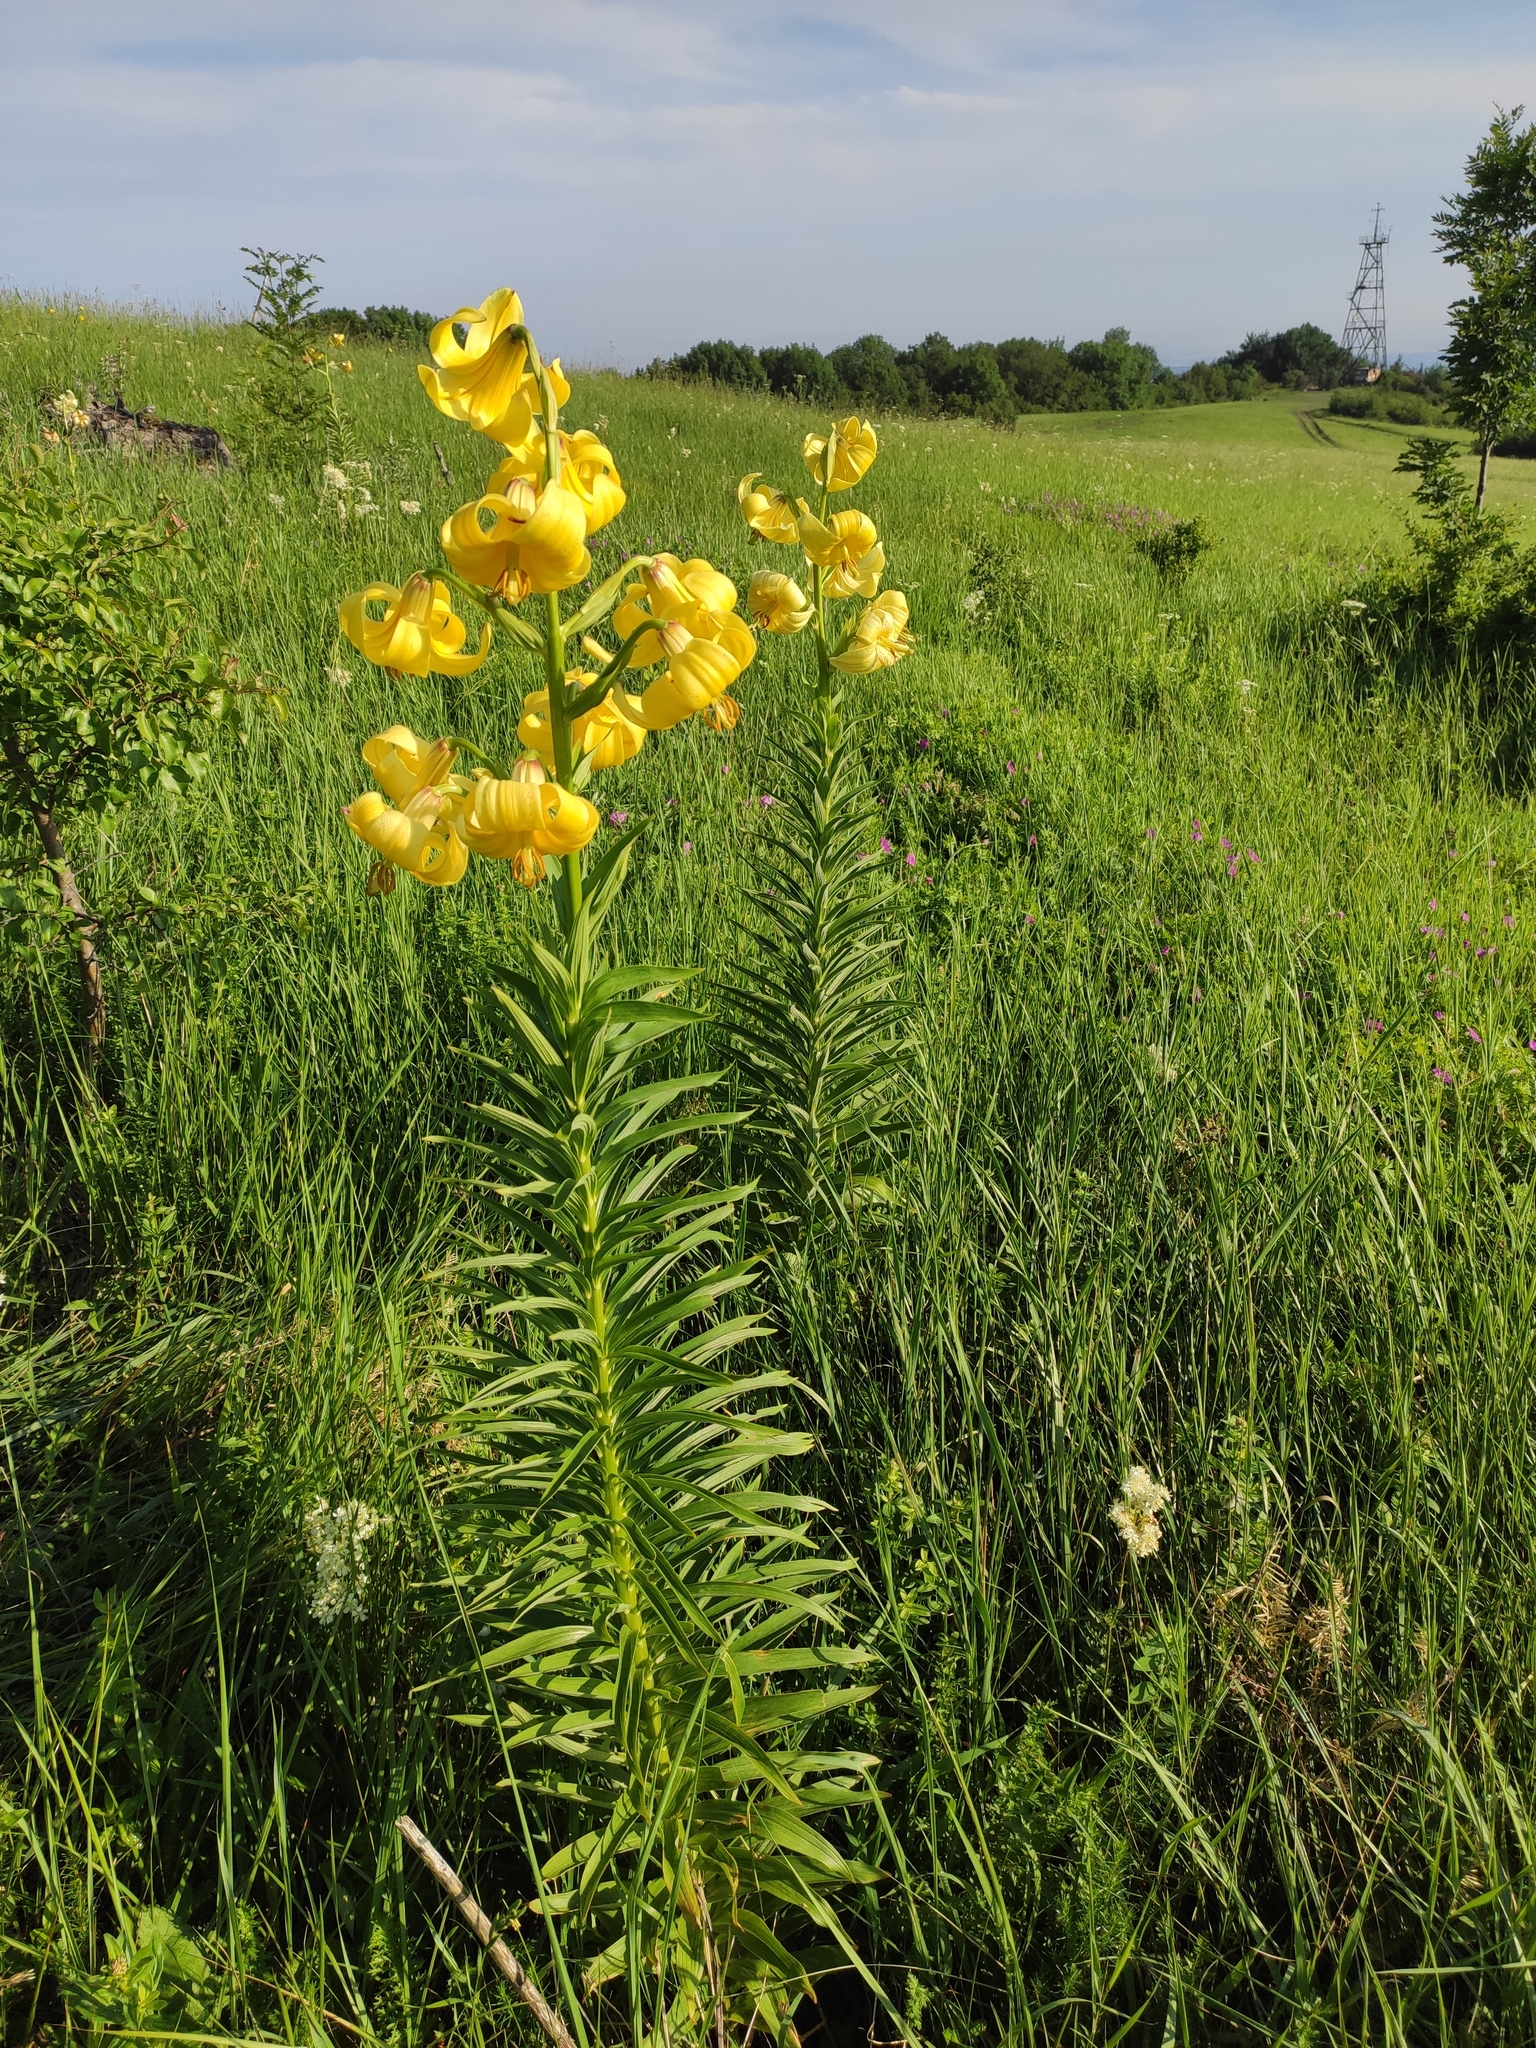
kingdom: Plantae
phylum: Tracheophyta
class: Liliopsida
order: Liliales
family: Liliaceae
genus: Lilium
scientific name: Lilium monadelphum
